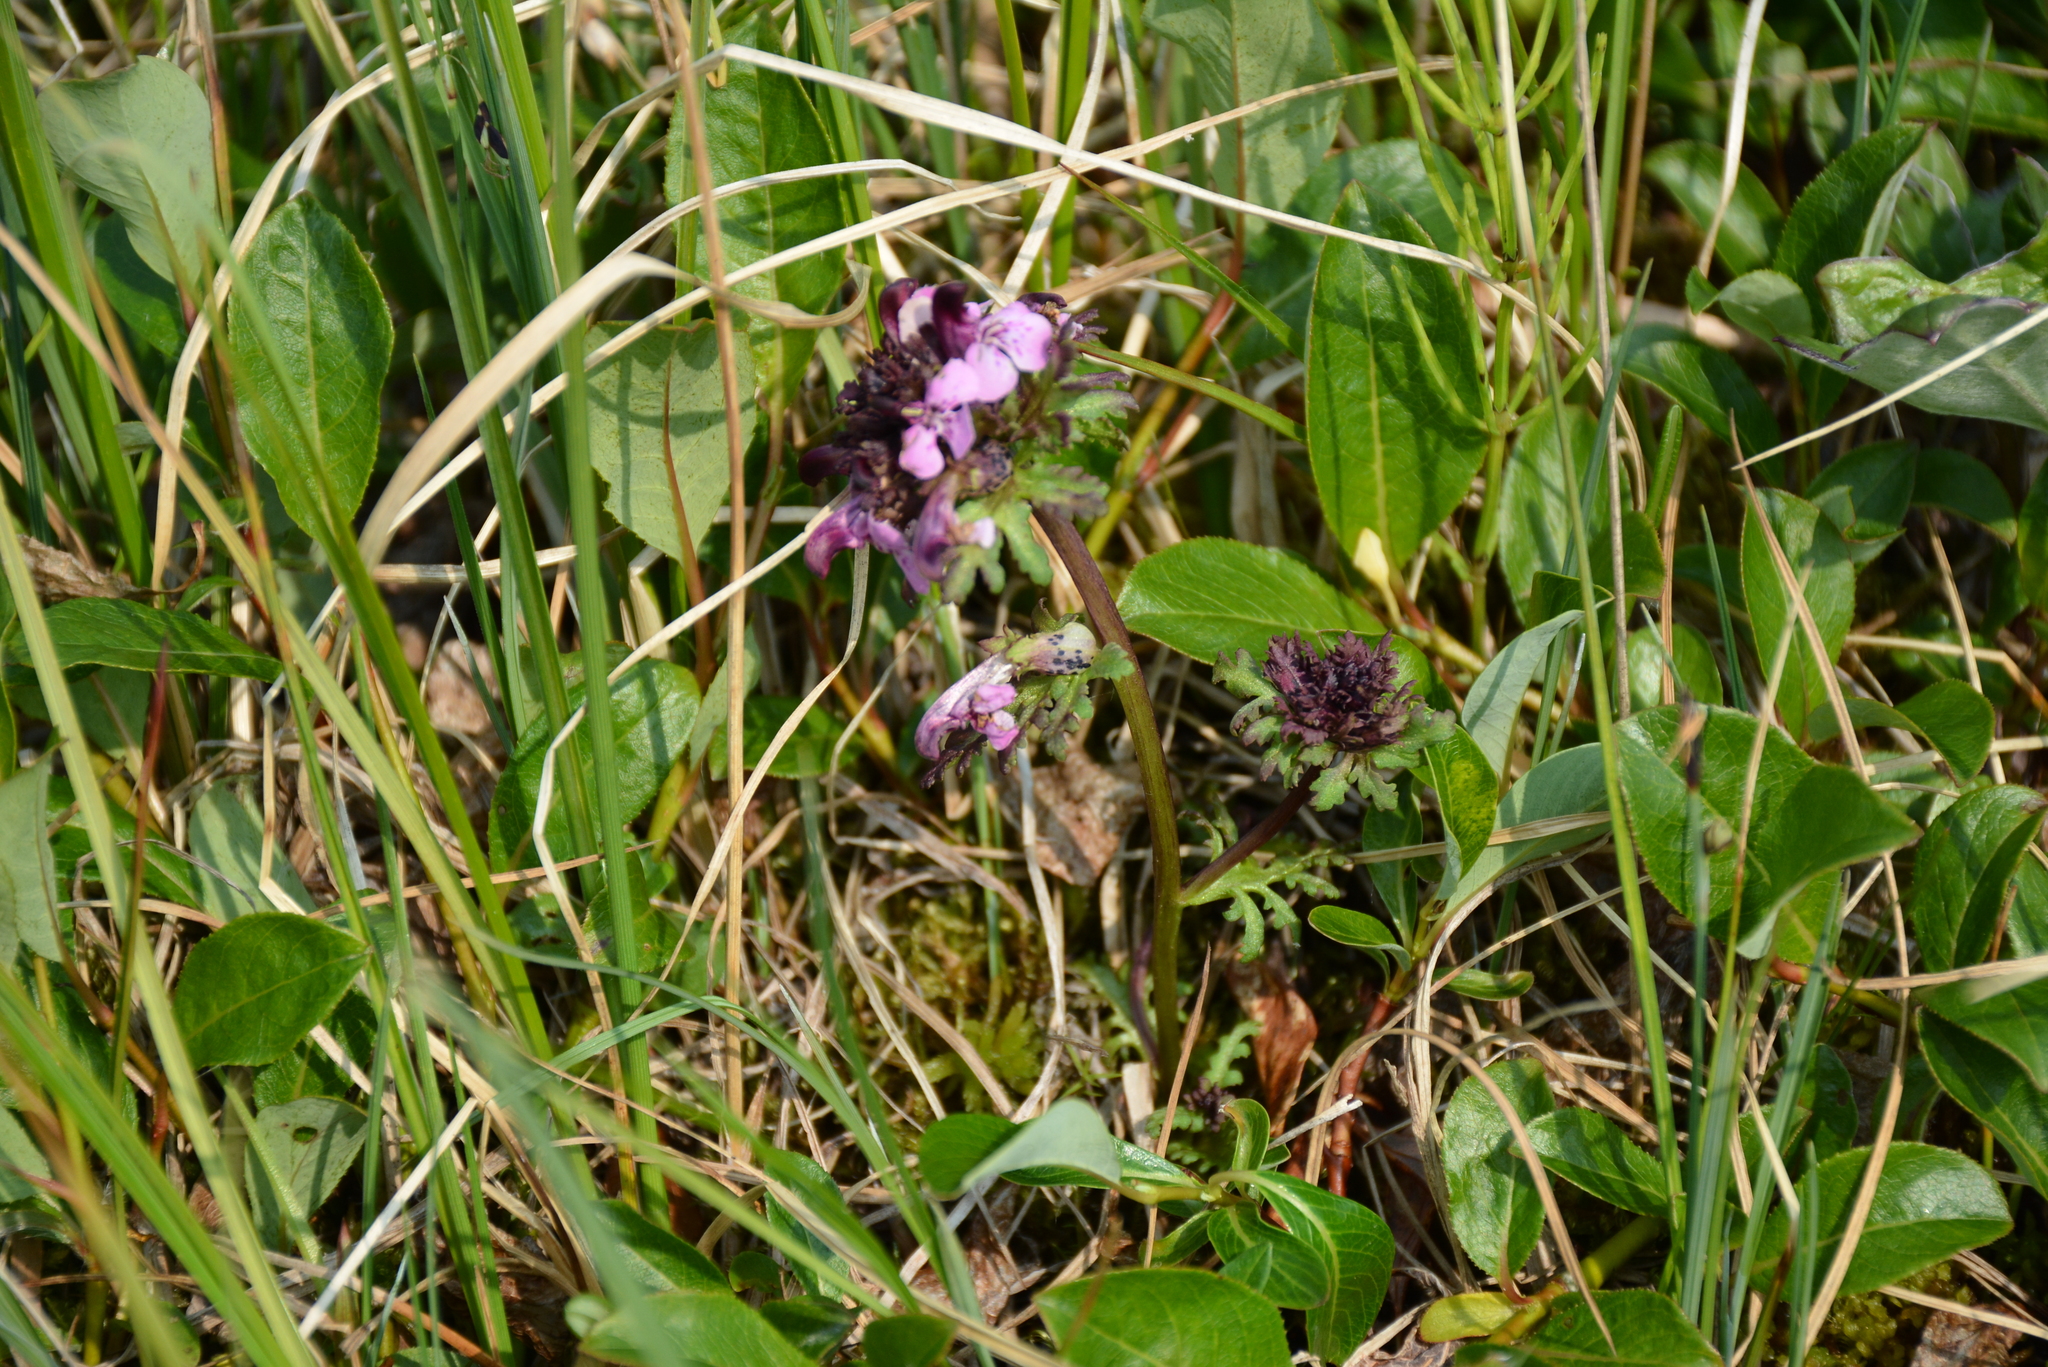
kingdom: Plantae
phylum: Tracheophyta
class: Magnoliopsida
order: Lamiales
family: Orobanchaceae
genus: Pedicularis
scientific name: Pedicularis pennellii
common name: Pennell's lousewort
